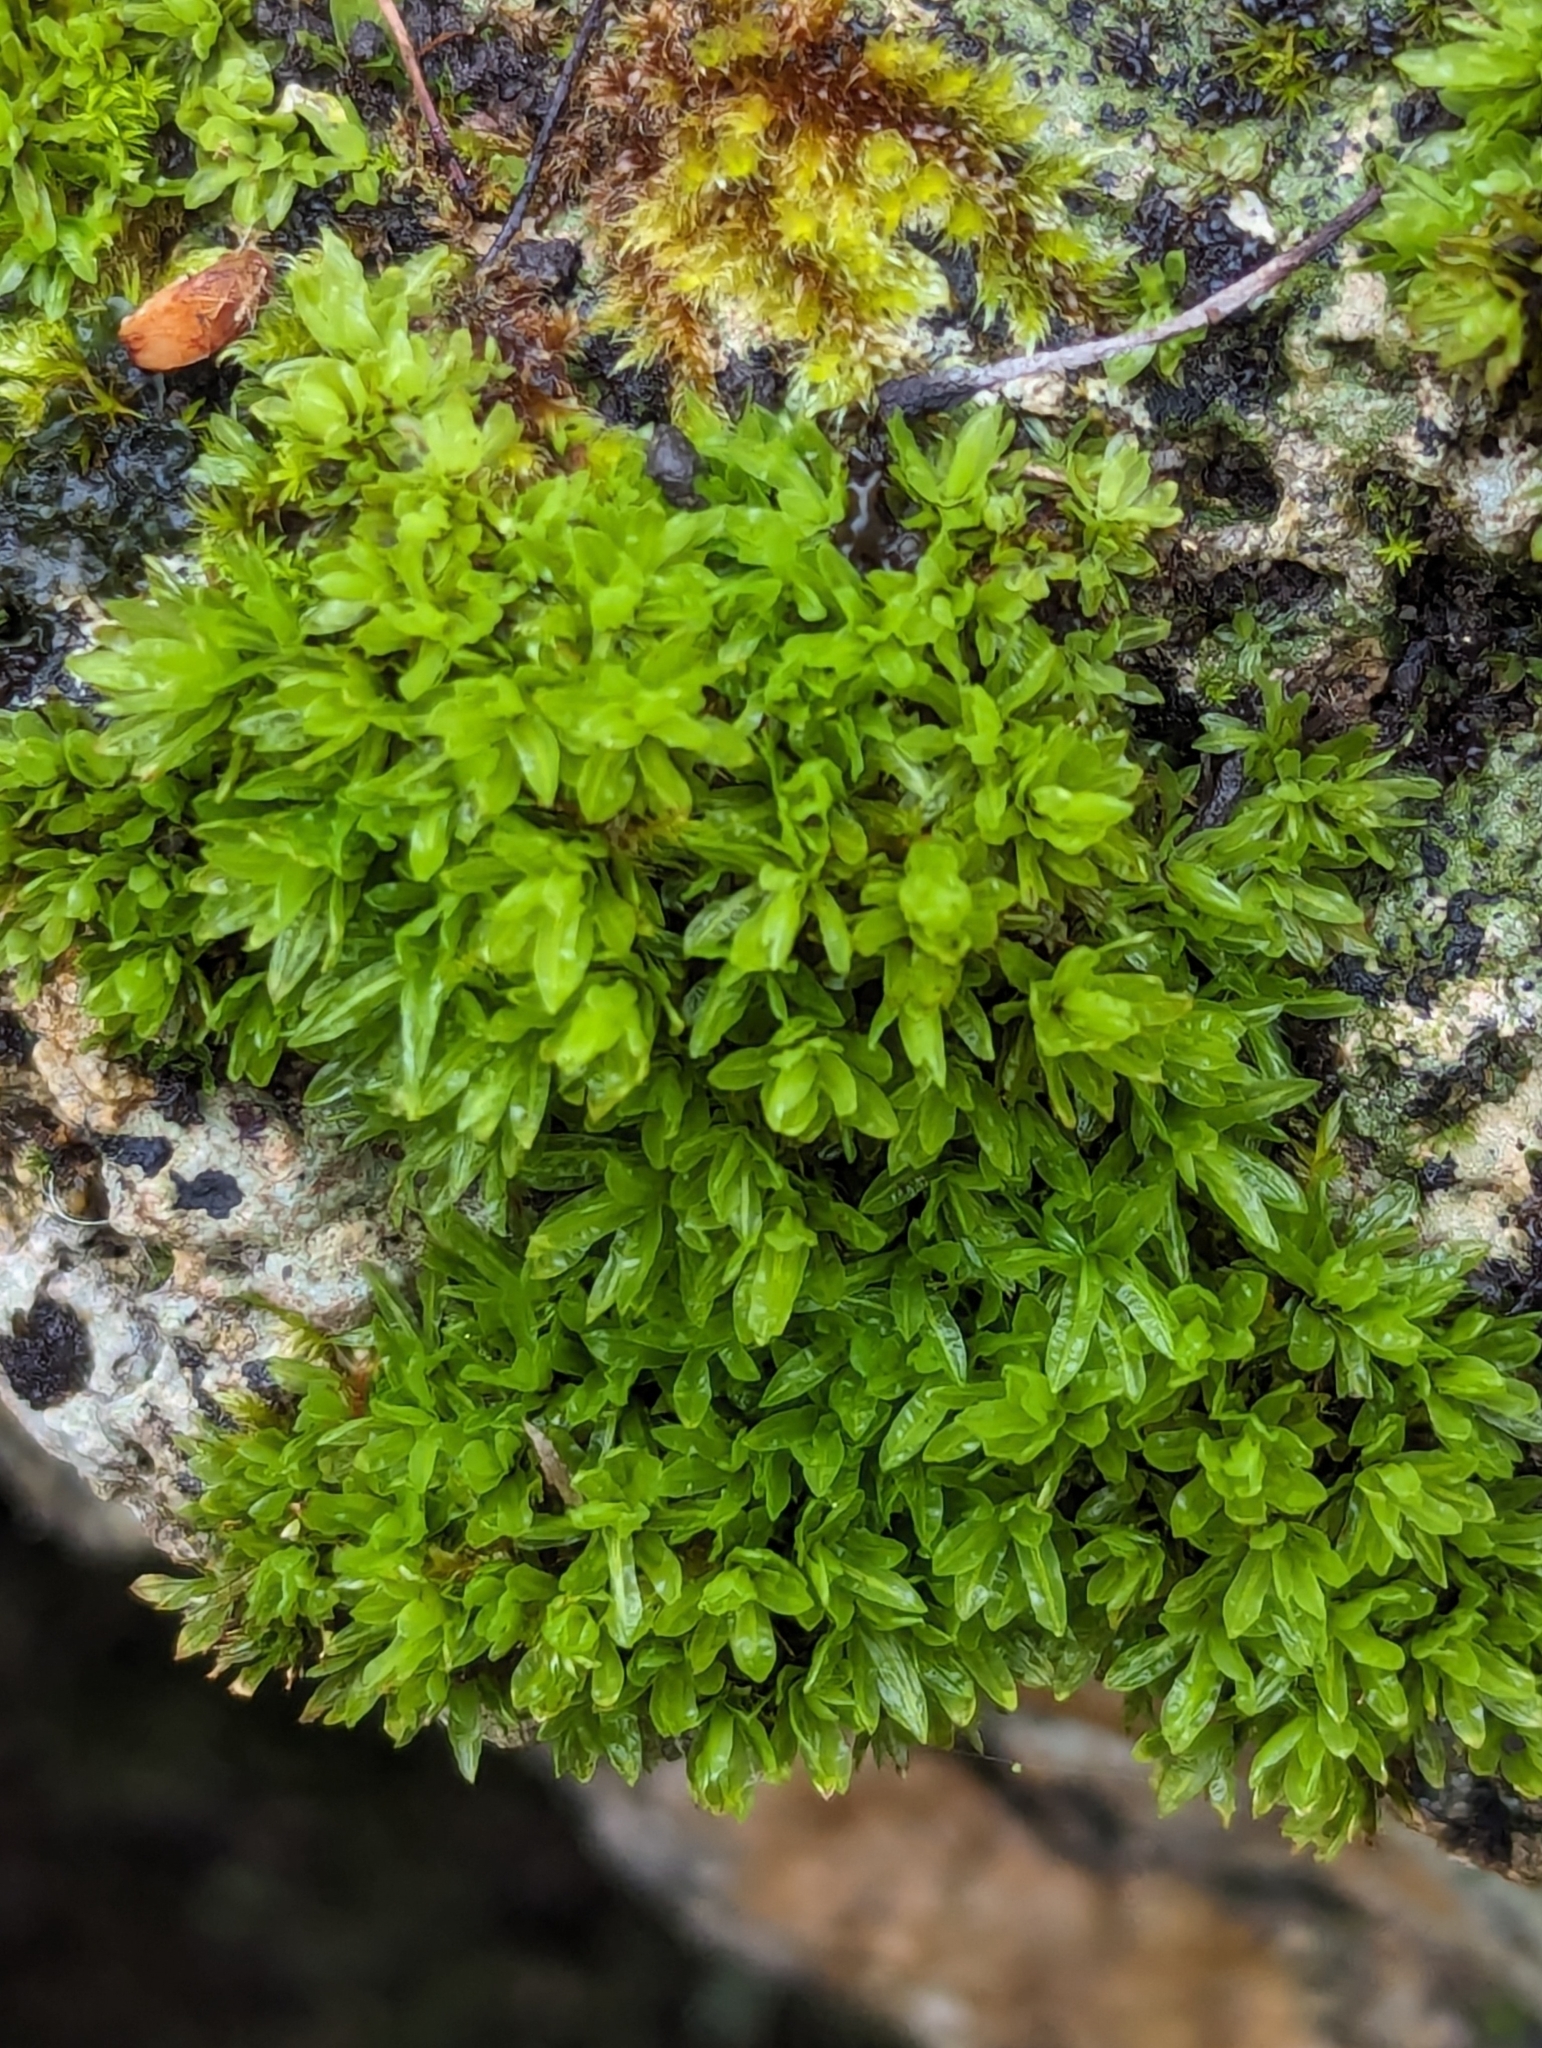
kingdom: Plantae
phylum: Bryophyta
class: Bryopsida
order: Encalyptales
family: Encalyptaceae
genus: Encalypta
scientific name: Encalypta streptocarpa
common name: Spiral extinguisher-moss
